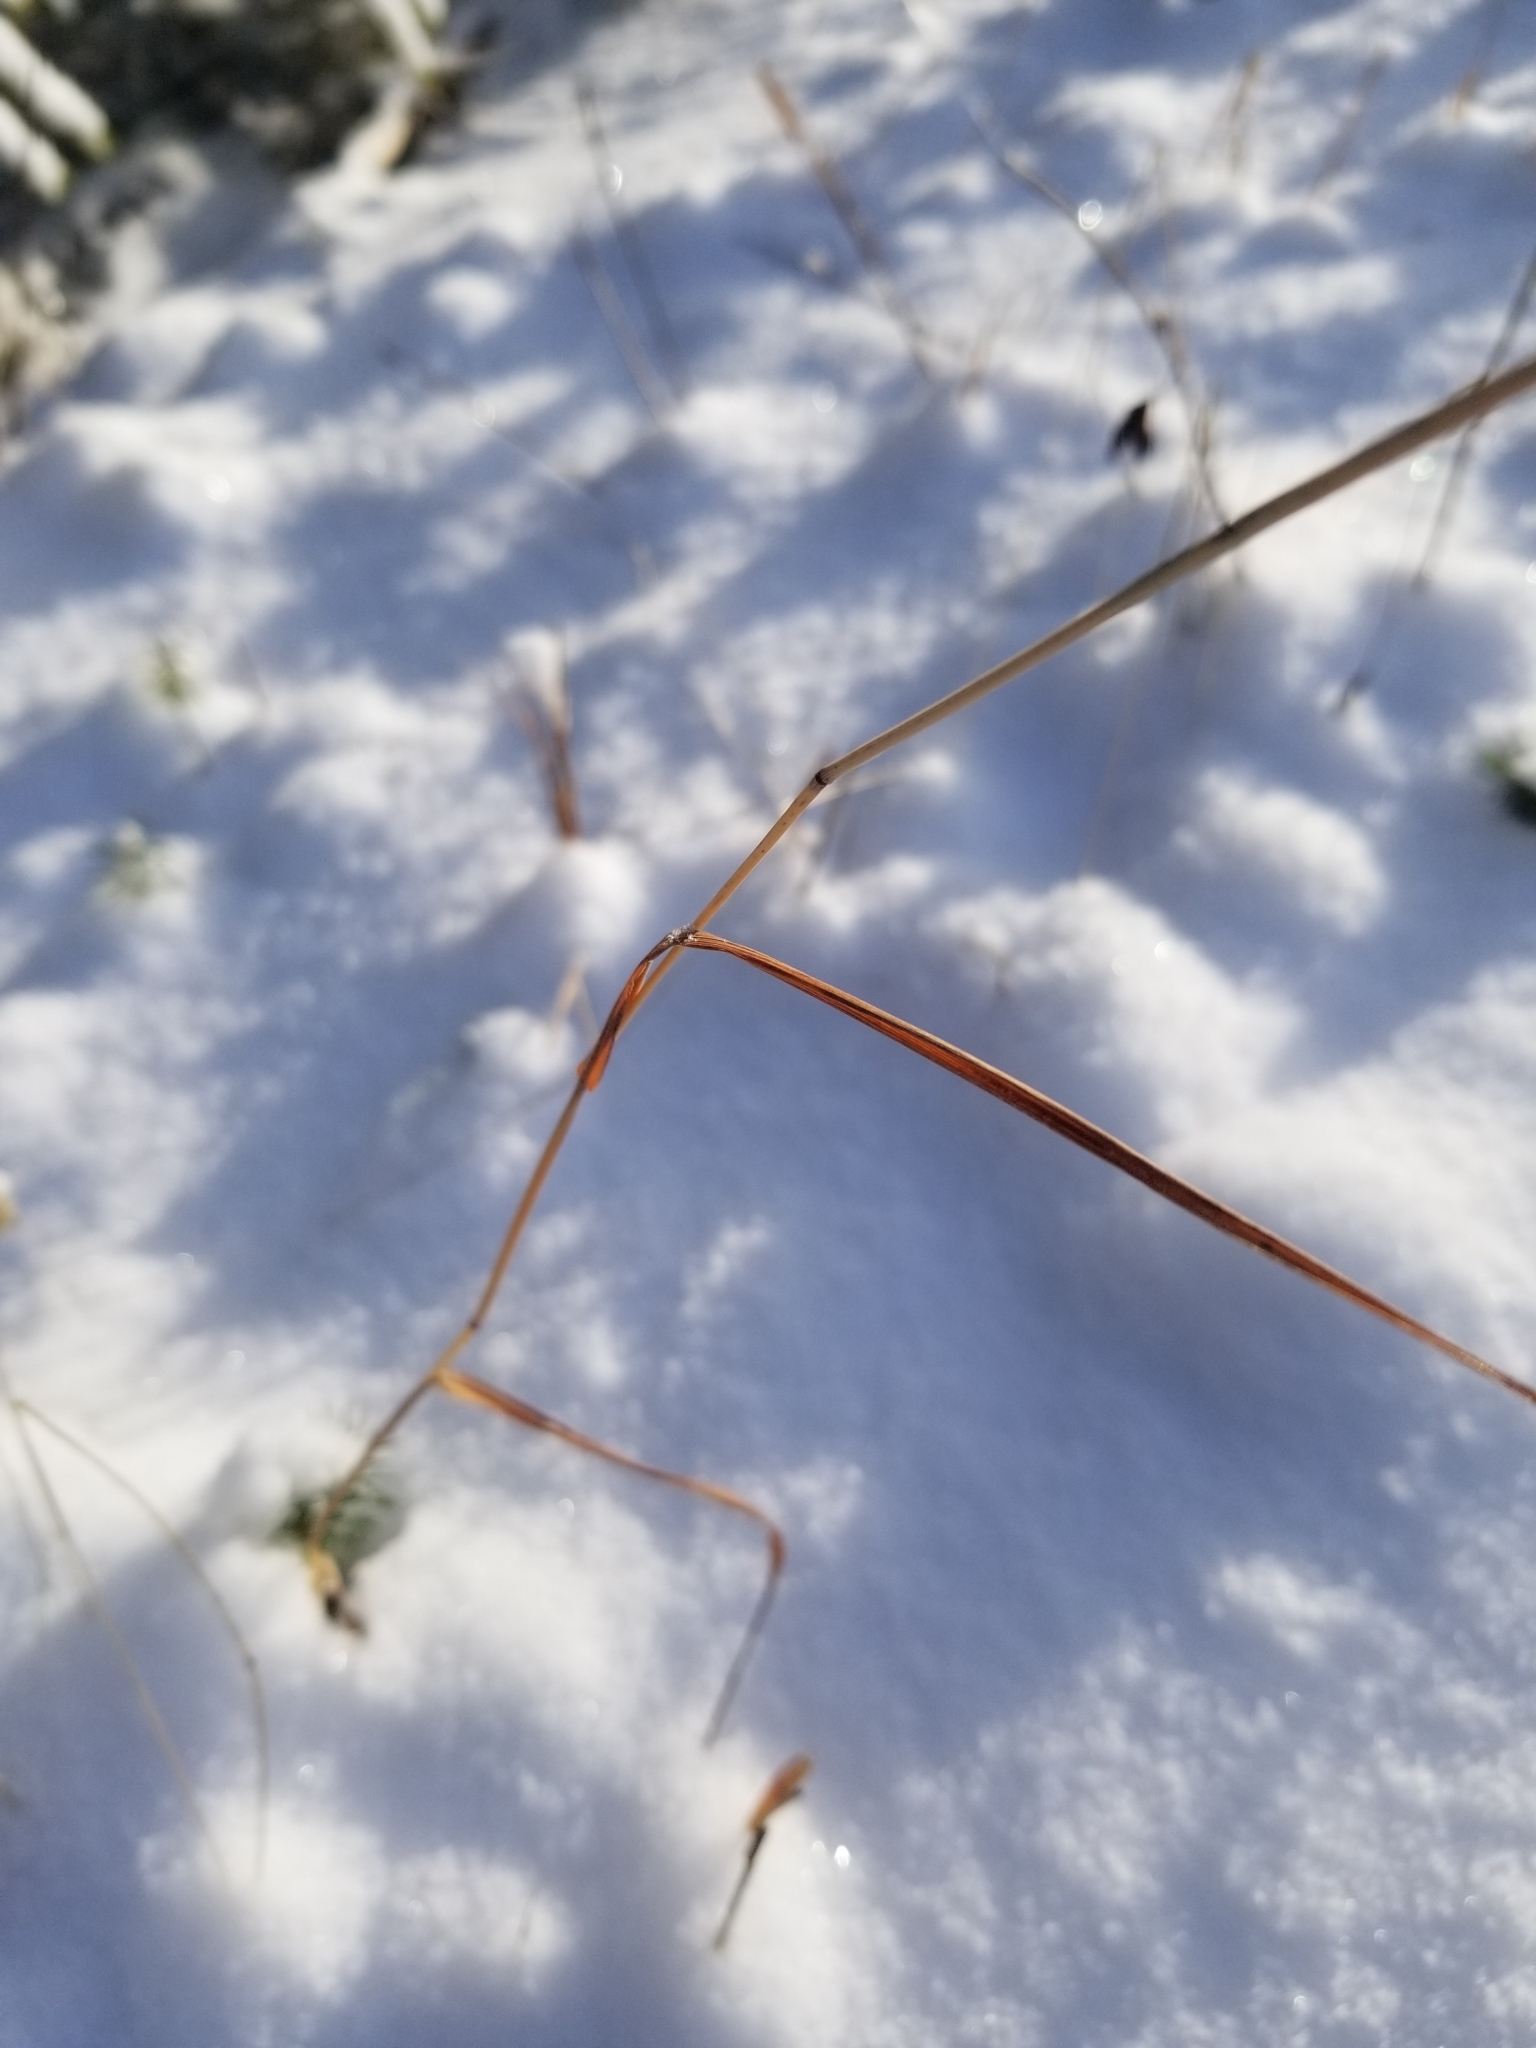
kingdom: Plantae
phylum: Tracheophyta
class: Liliopsida
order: Poales
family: Poaceae
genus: Phleum
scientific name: Phleum pratense
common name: Timothy grass
